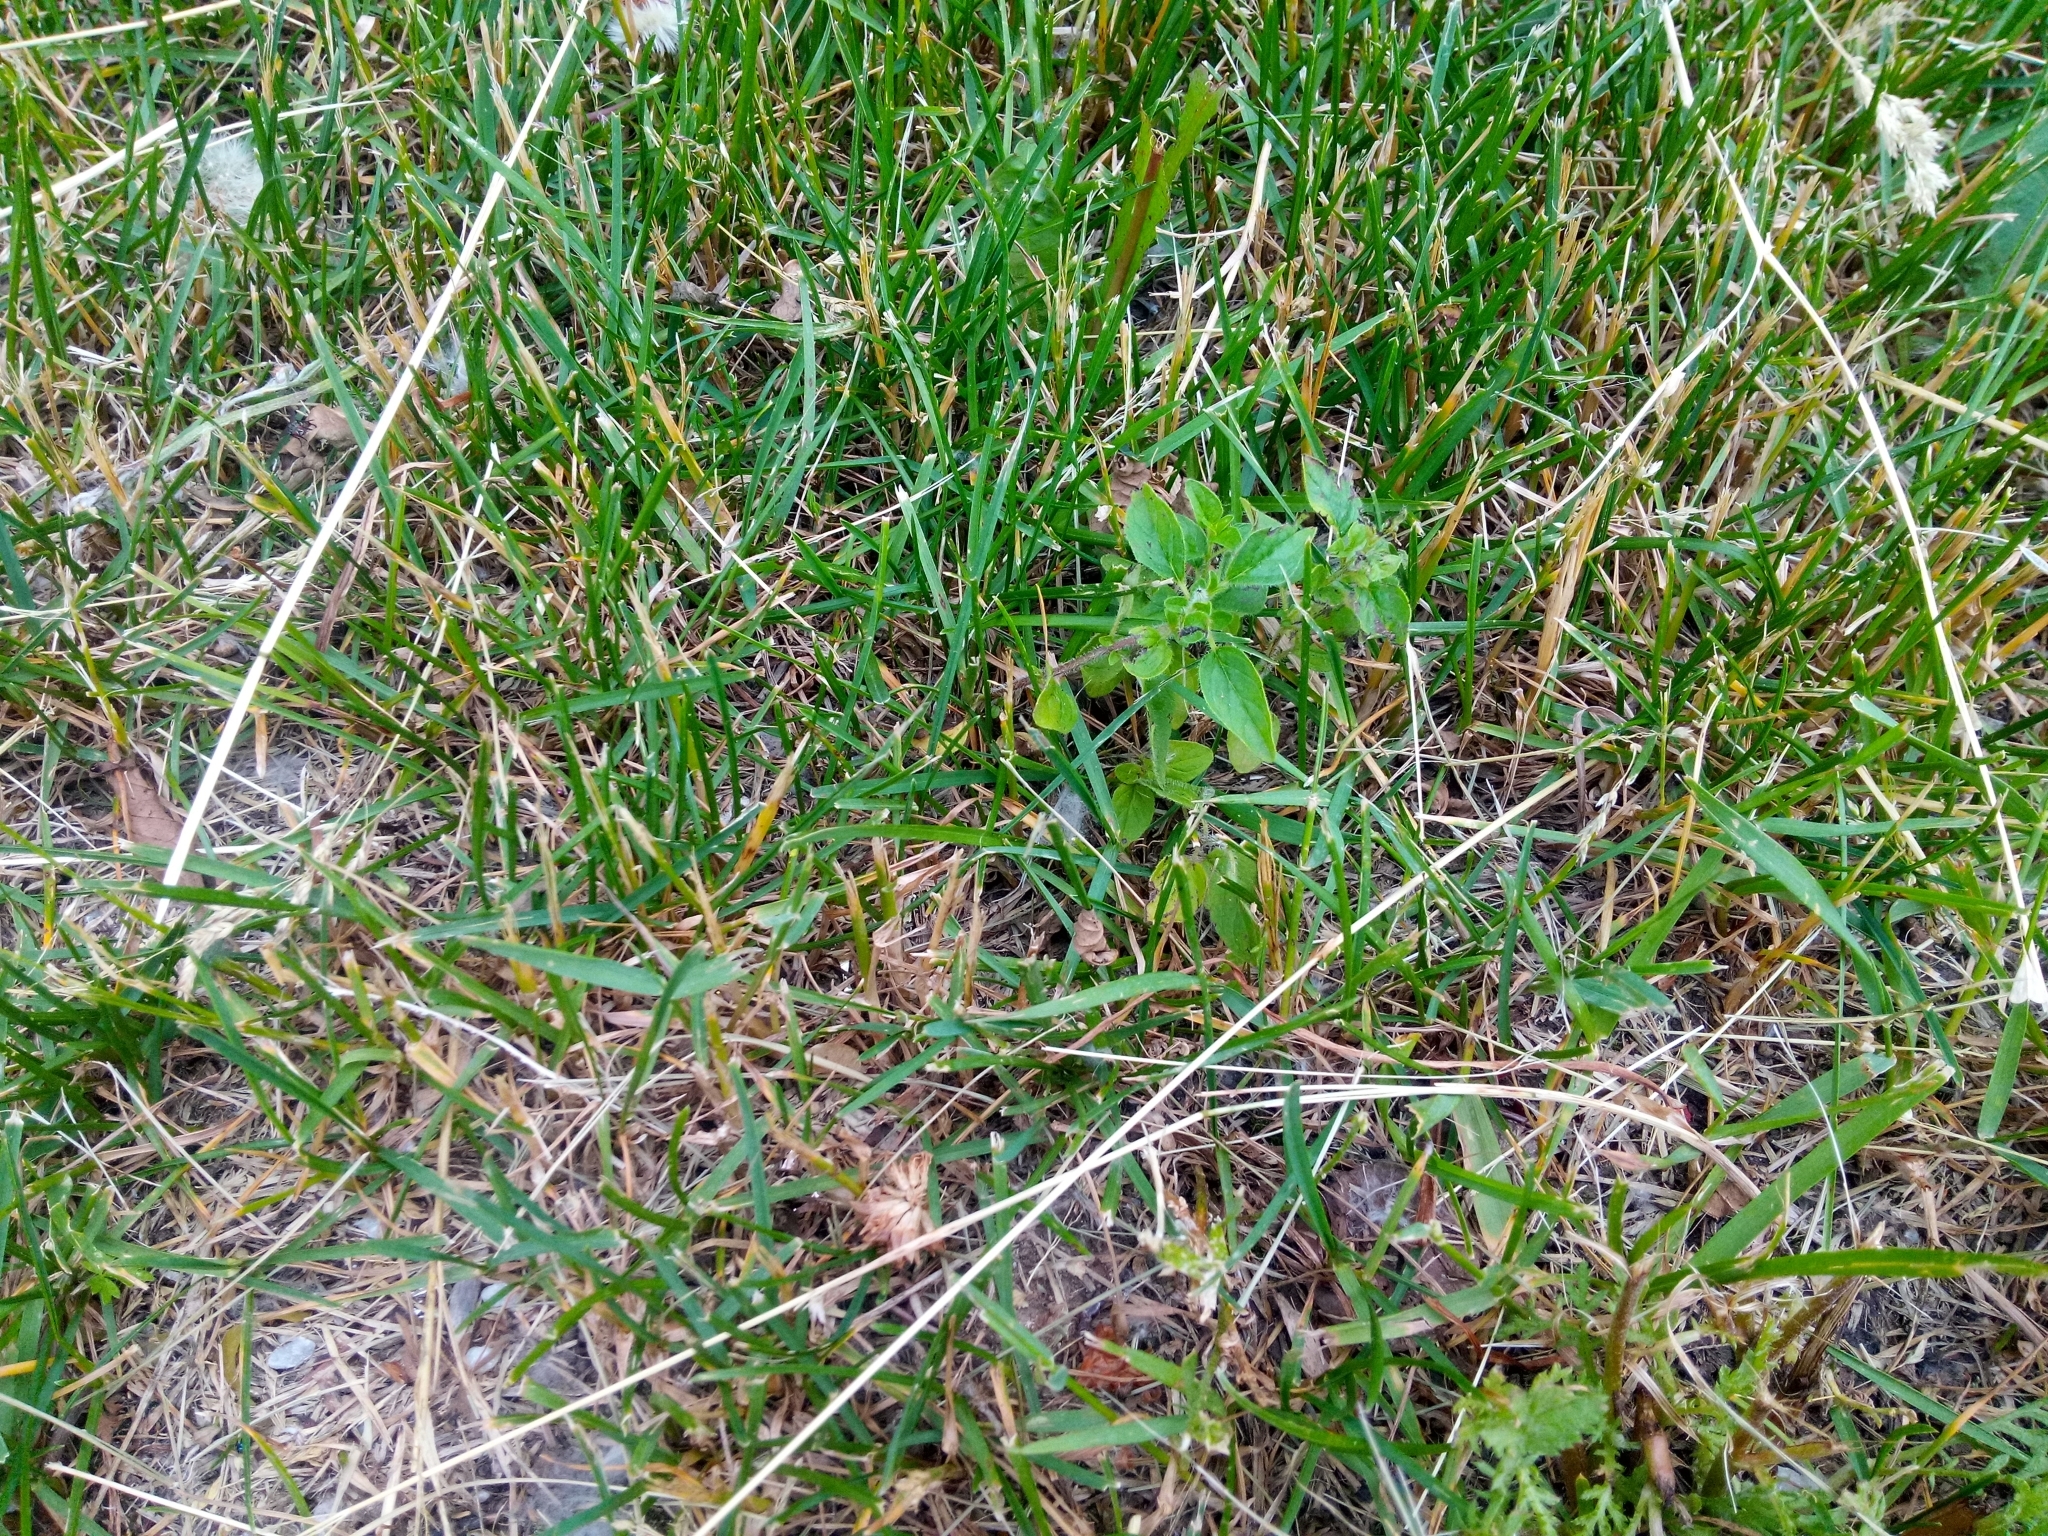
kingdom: Plantae
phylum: Tracheophyta
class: Magnoliopsida
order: Lamiales
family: Lamiaceae
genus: Origanum
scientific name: Origanum vulgare
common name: Wild marjoram
